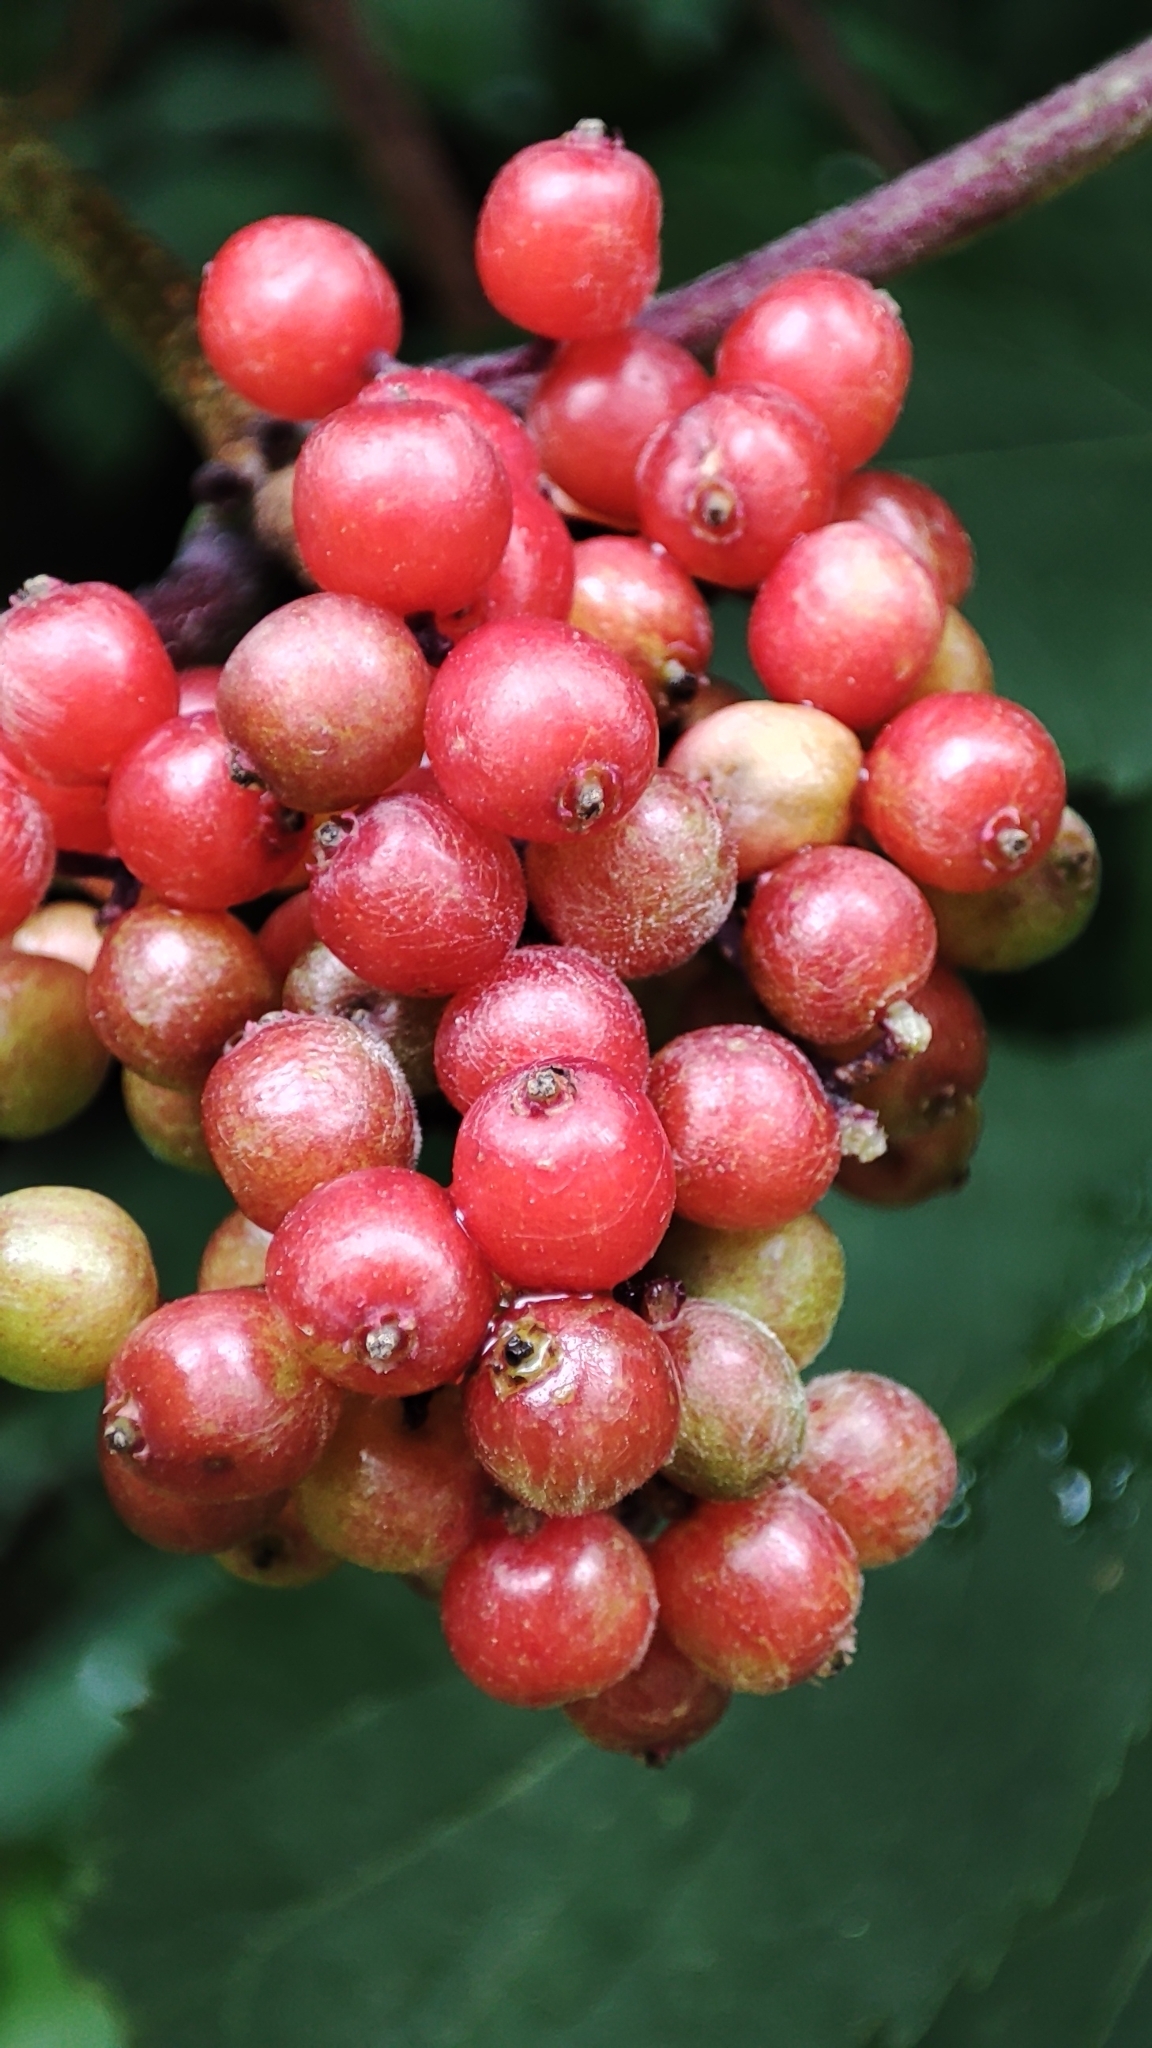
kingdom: Plantae
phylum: Tracheophyta
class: Magnoliopsida
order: Dipsacales
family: Viburnaceae
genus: Sambucus
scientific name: Sambucus racemosa
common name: Red-berried elder
